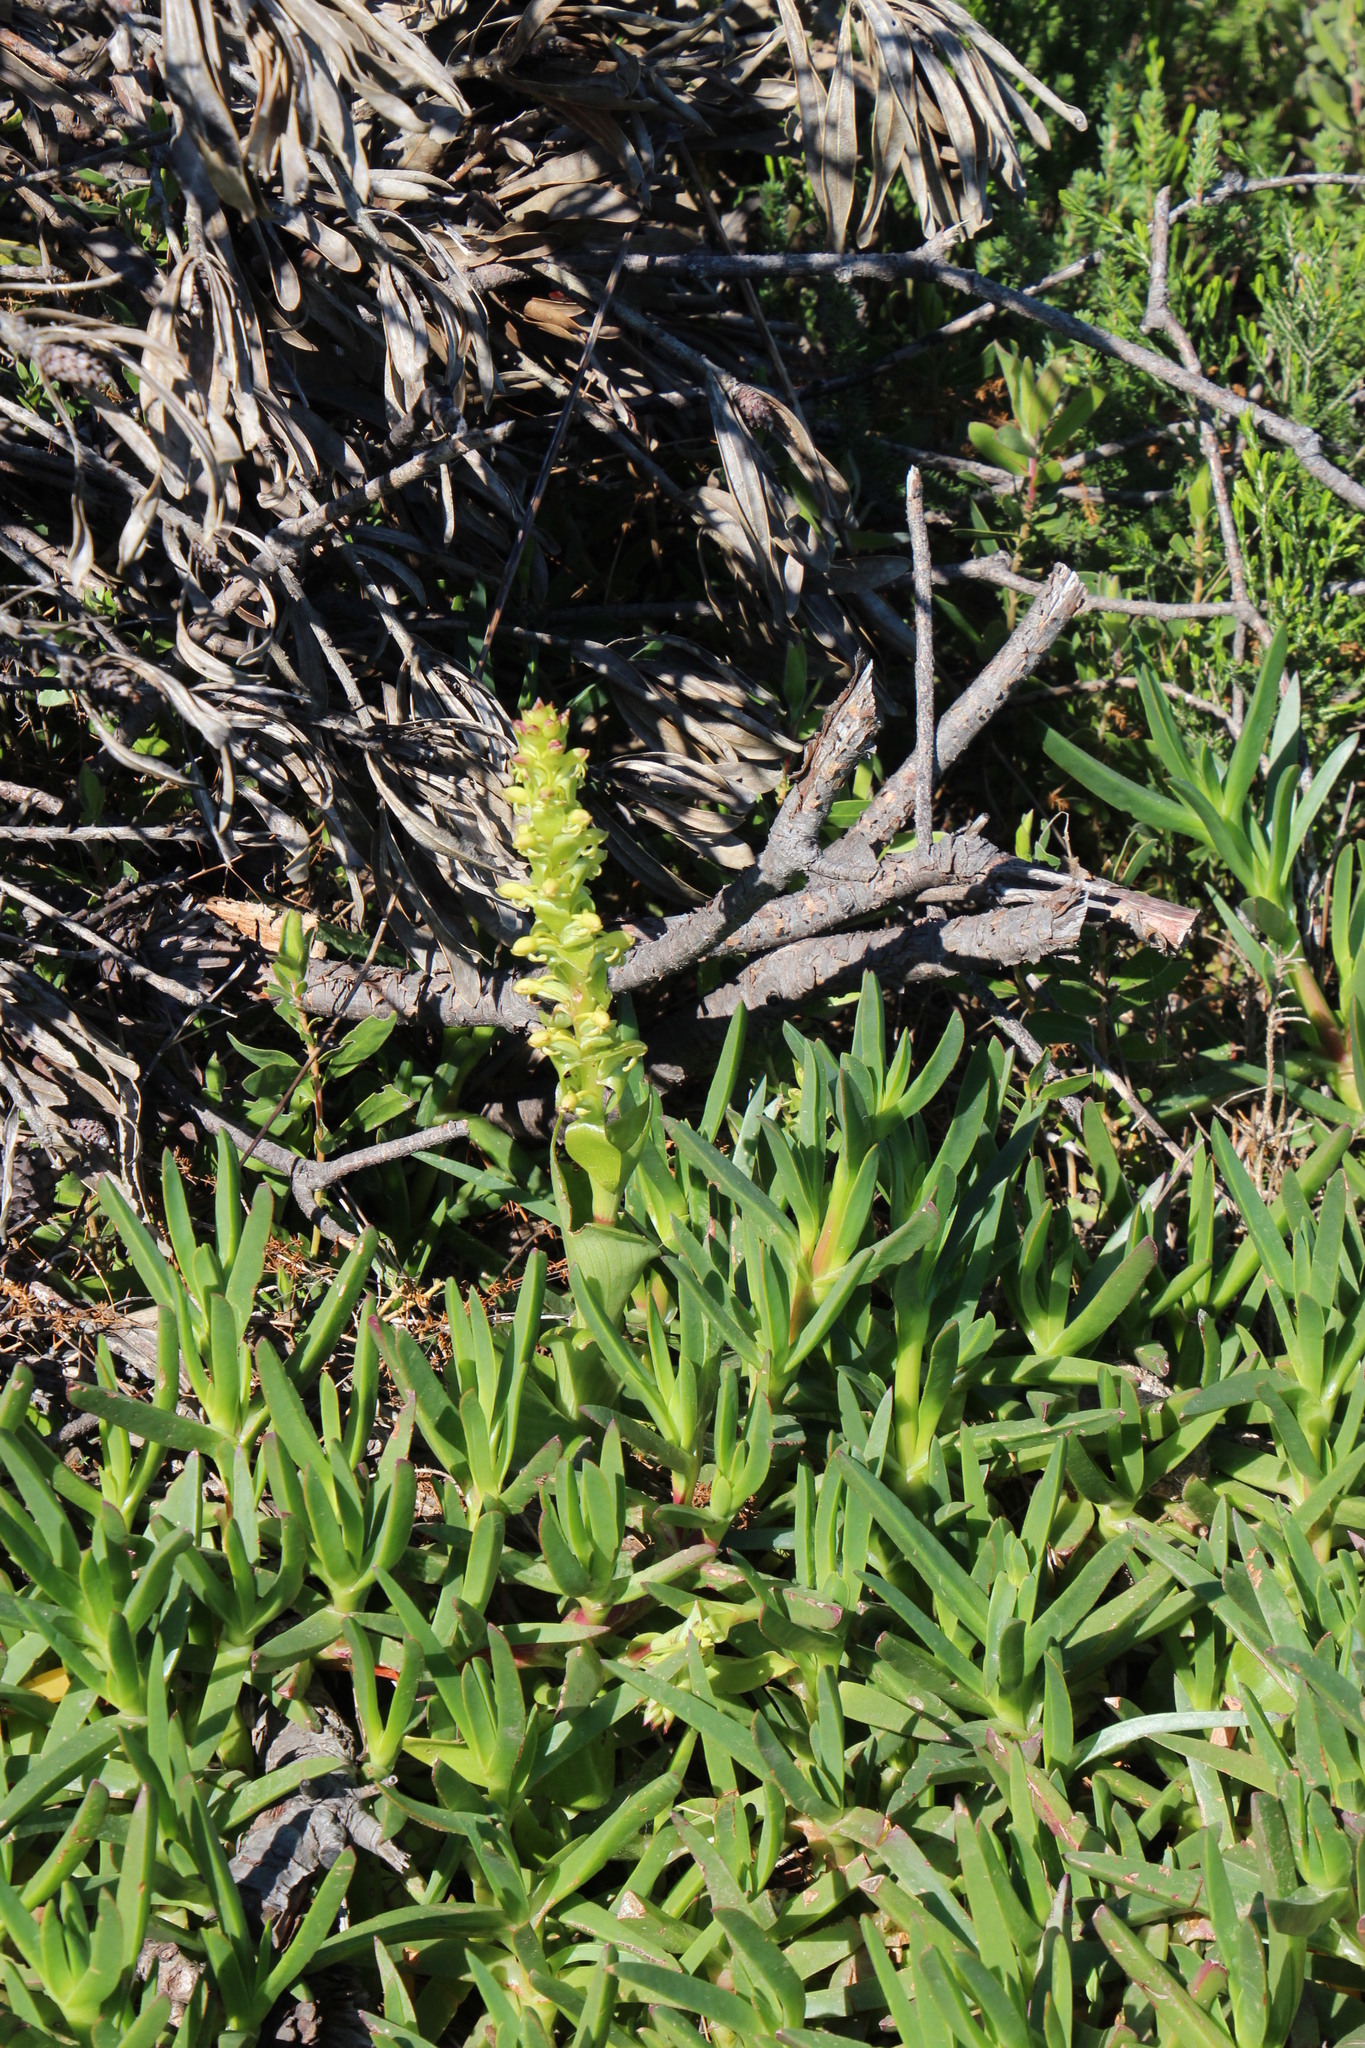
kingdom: Plantae
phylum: Tracheophyta
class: Liliopsida
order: Asparagales
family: Orchidaceae
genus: Satyrium
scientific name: Satyrium odorum
